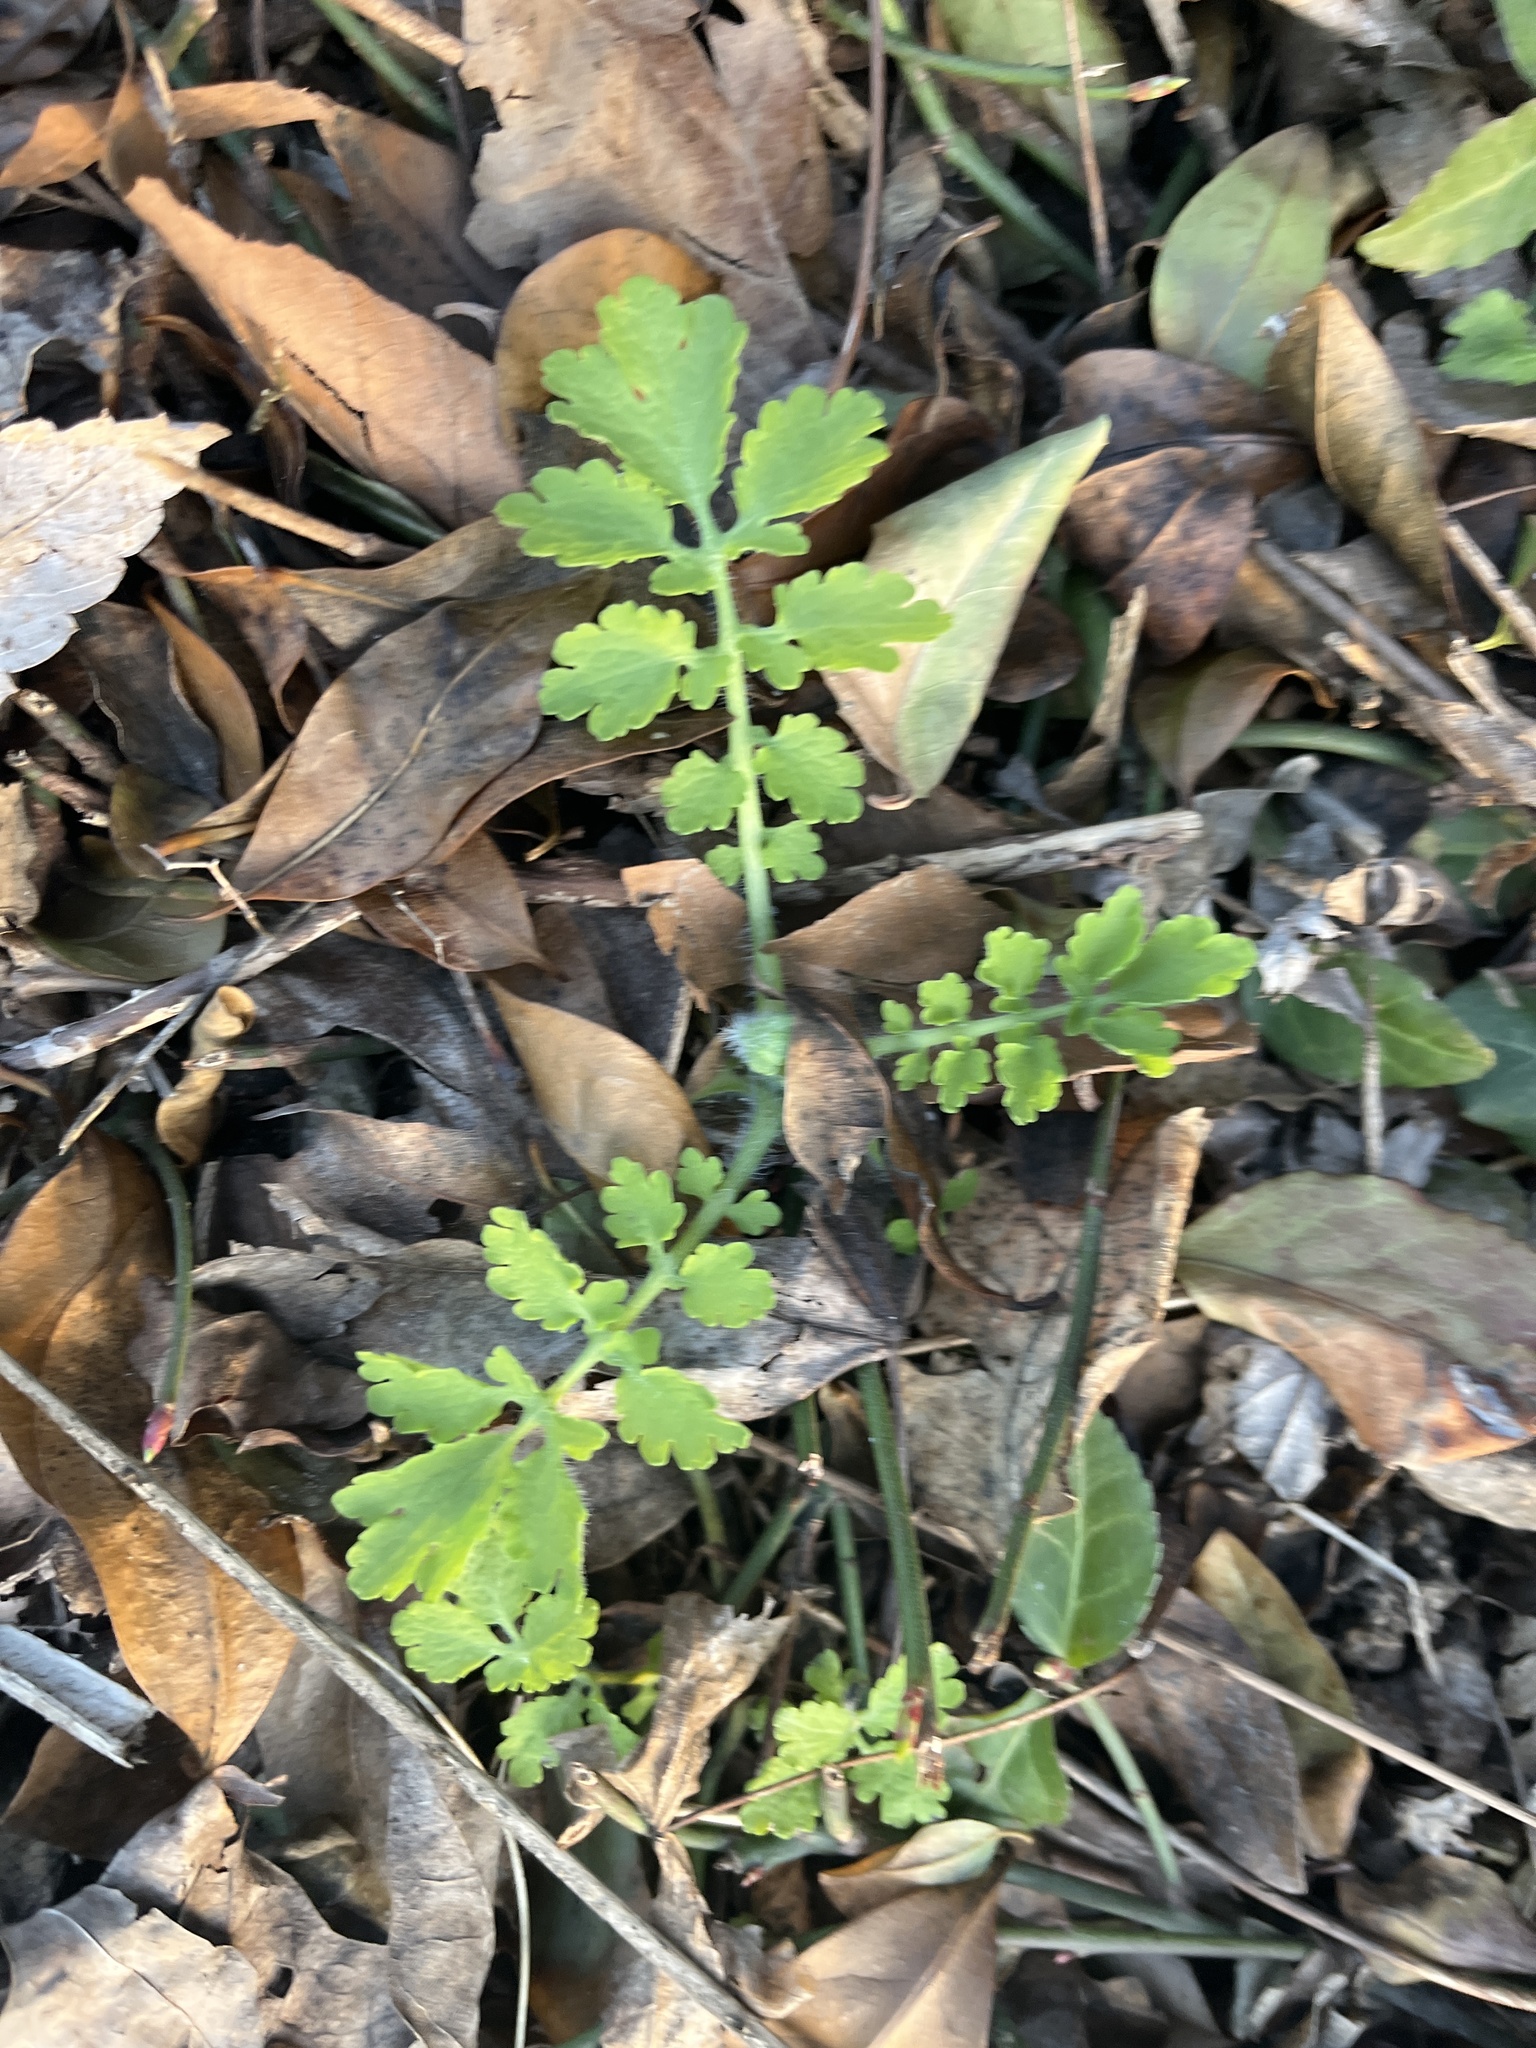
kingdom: Plantae
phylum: Tracheophyta
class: Magnoliopsida
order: Ranunculales
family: Papaveraceae
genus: Chelidonium
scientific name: Chelidonium majus
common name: Greater celandine
